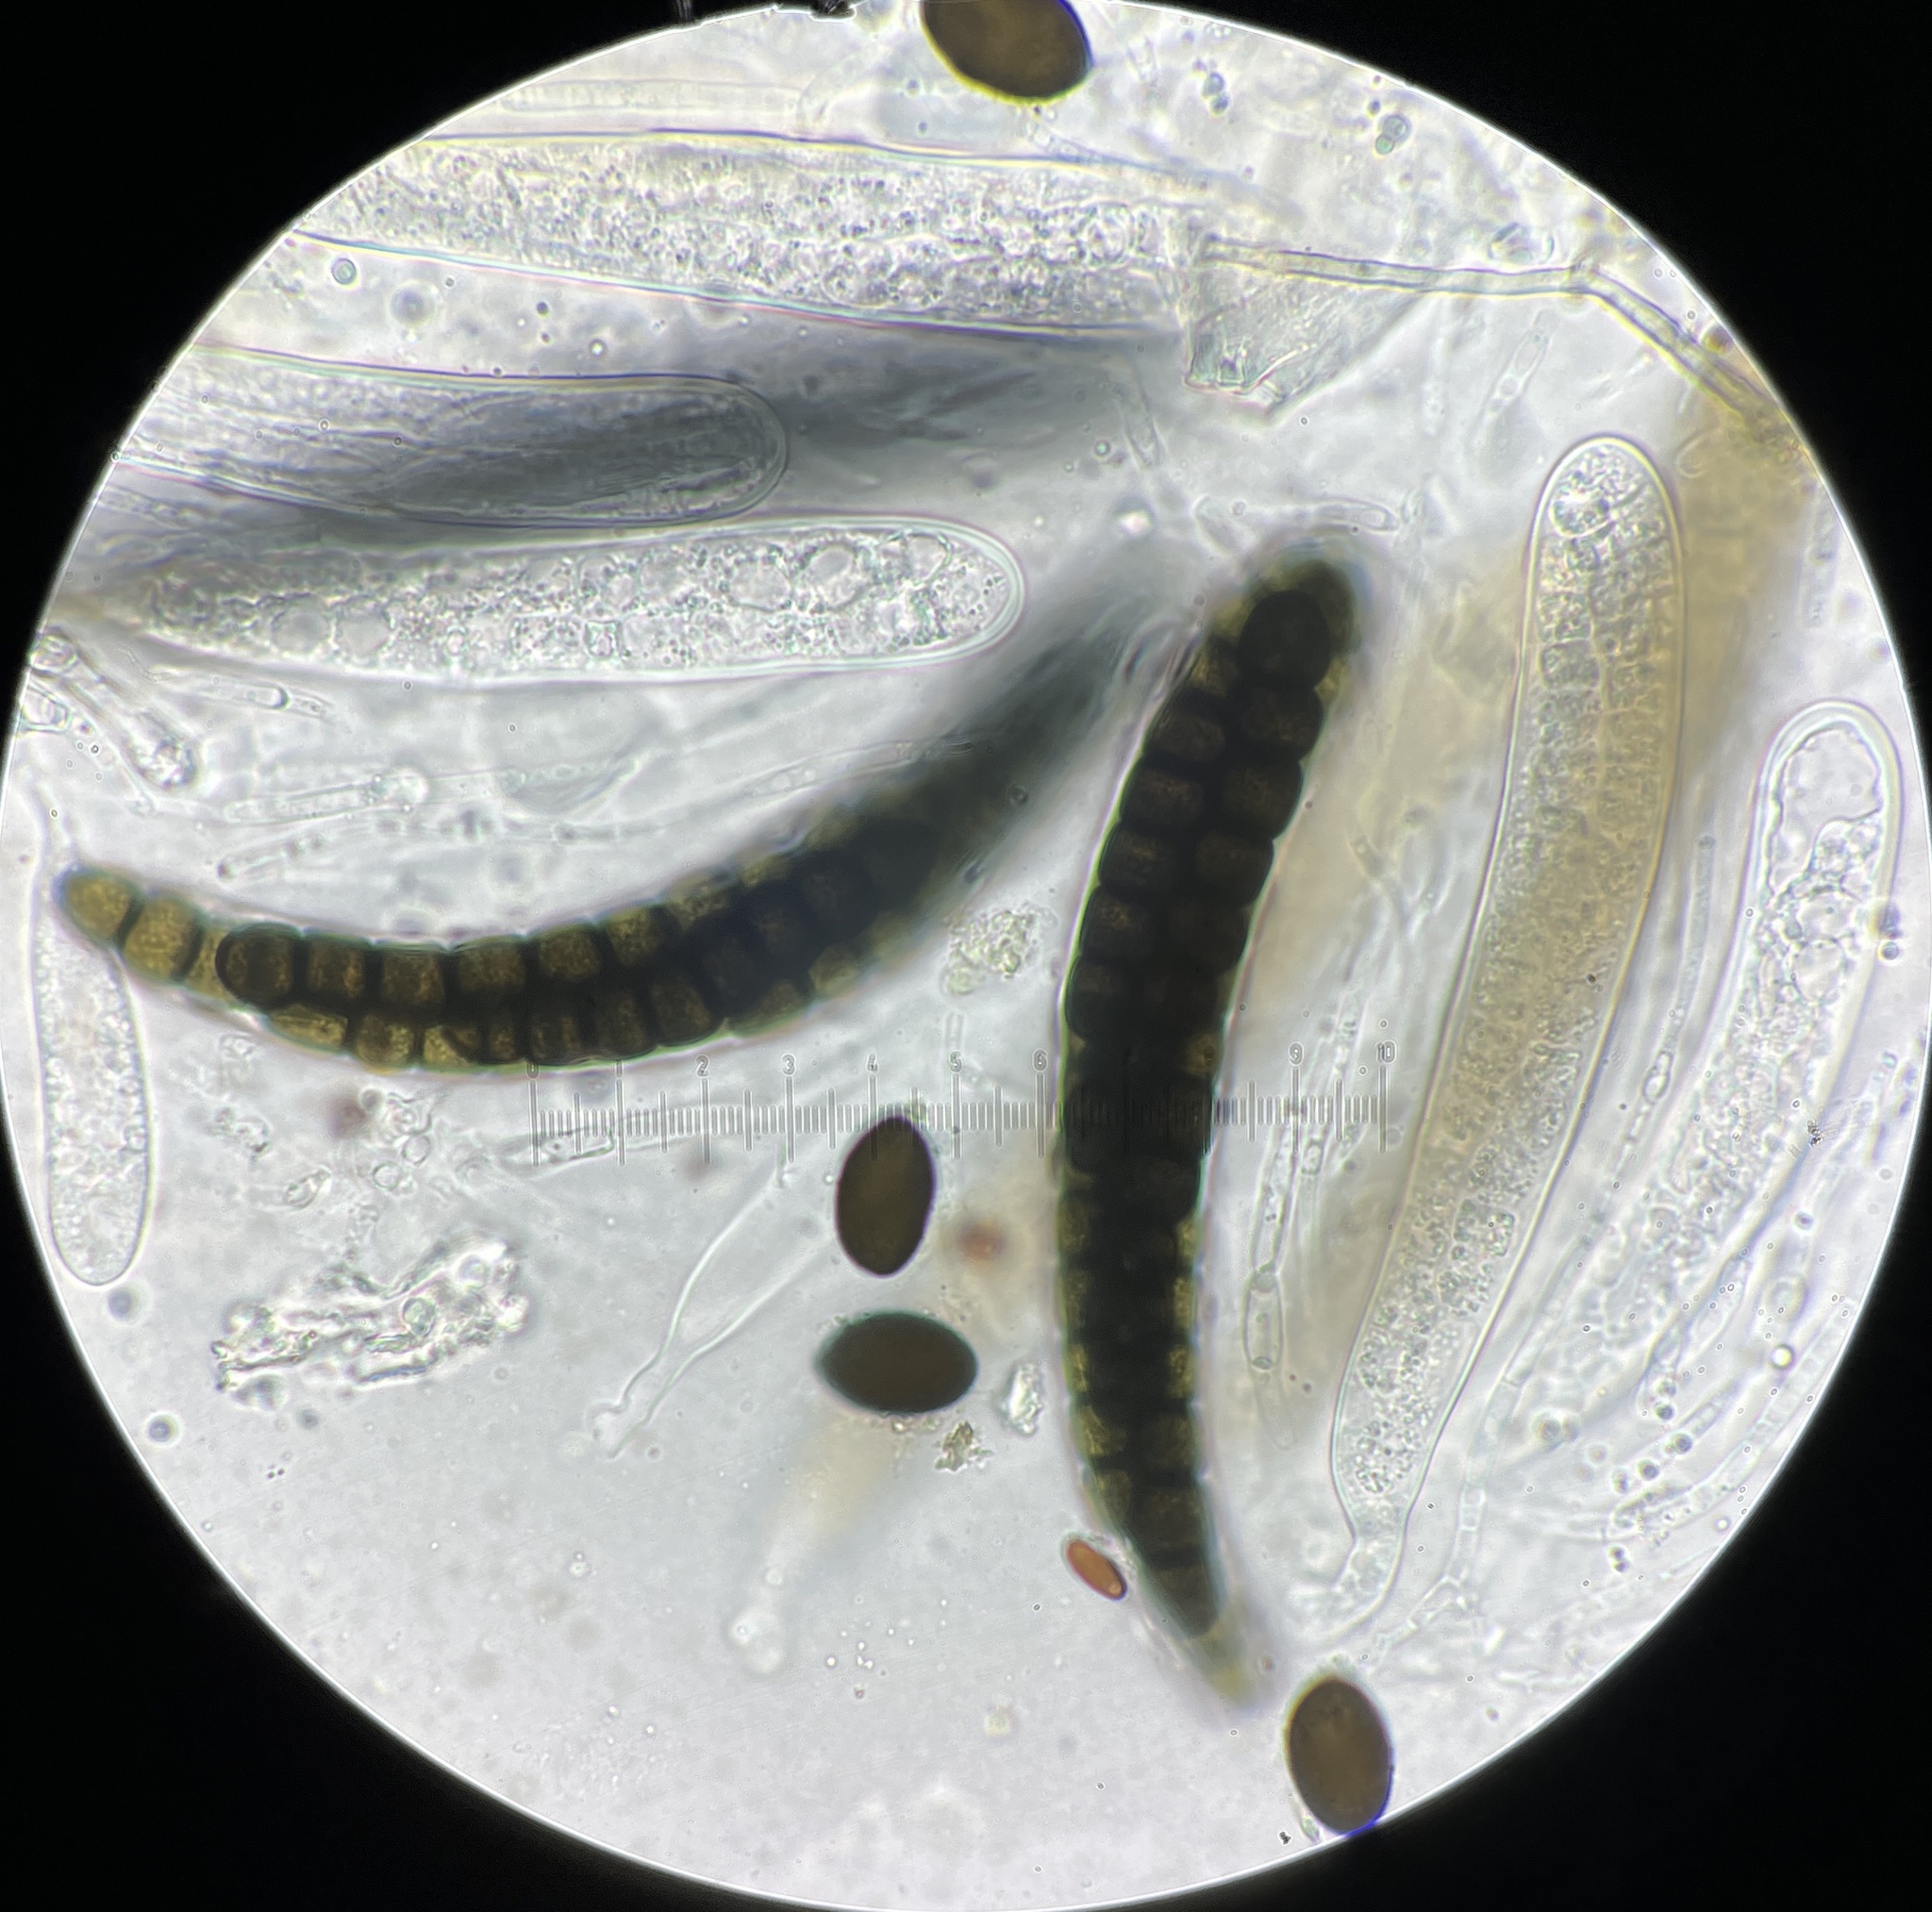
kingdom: Fungi
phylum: Ascomycota
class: Dothideomycetes
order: Pleosporales
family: Sporormiaceae
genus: Sporormia
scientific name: Sporormia subticinensis
